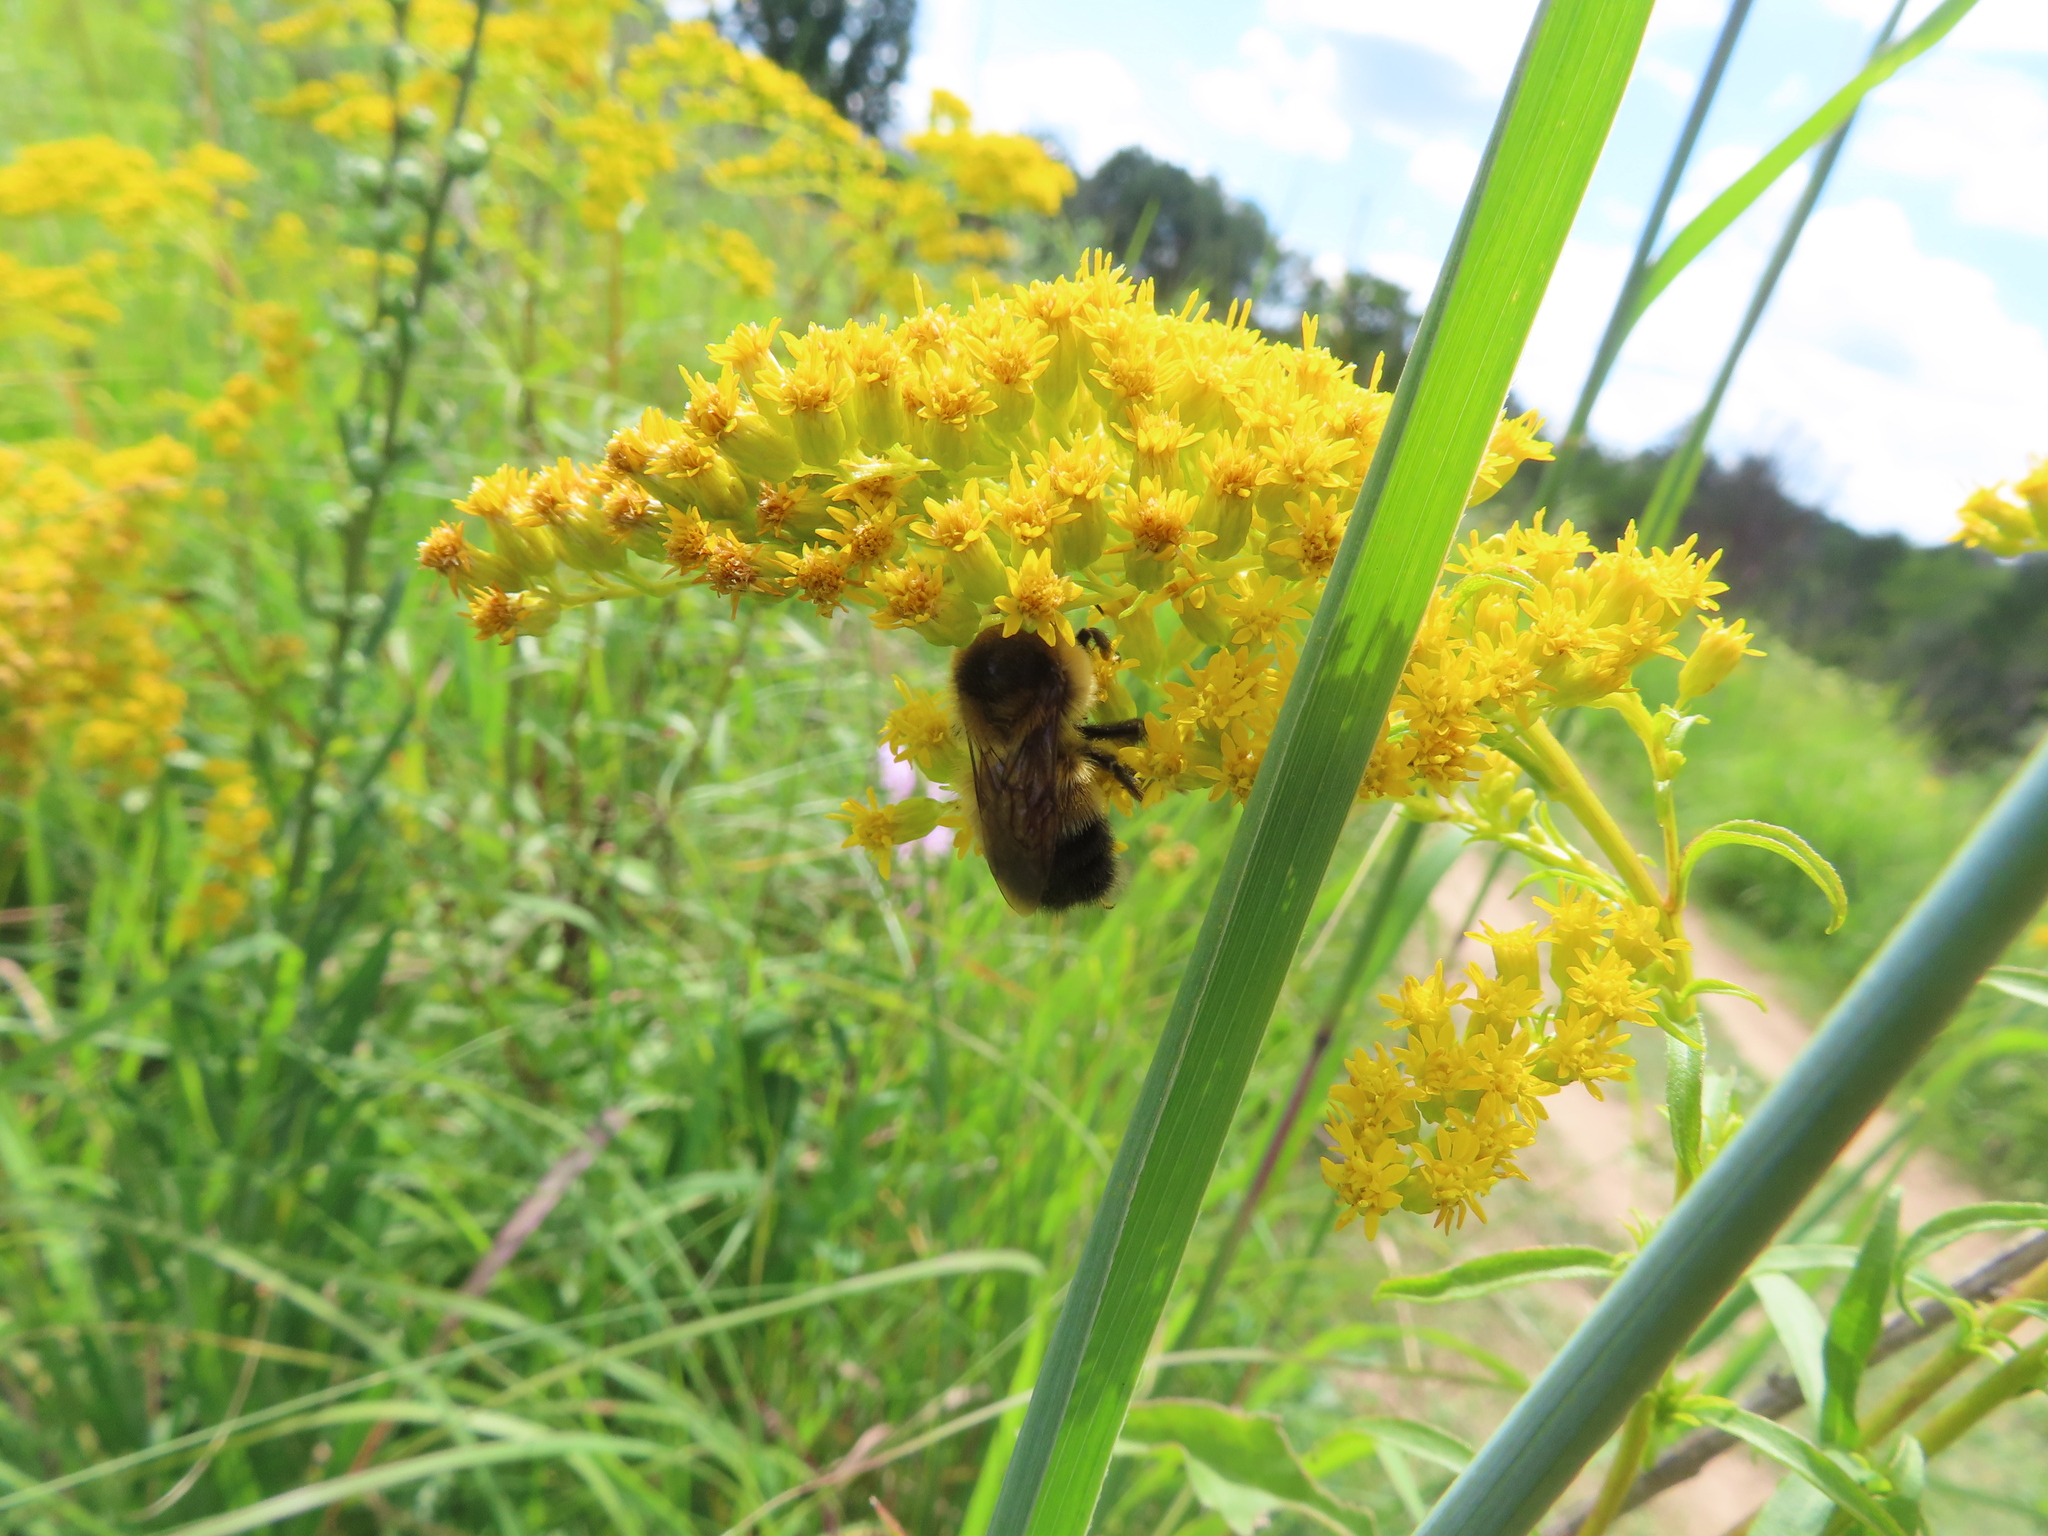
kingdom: Animalia
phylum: Arthropoda
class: Insecta
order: Hymenoptera
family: Apidae
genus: Bombus
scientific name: Bombus rufocinctus
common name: Red-belted bumble bee
